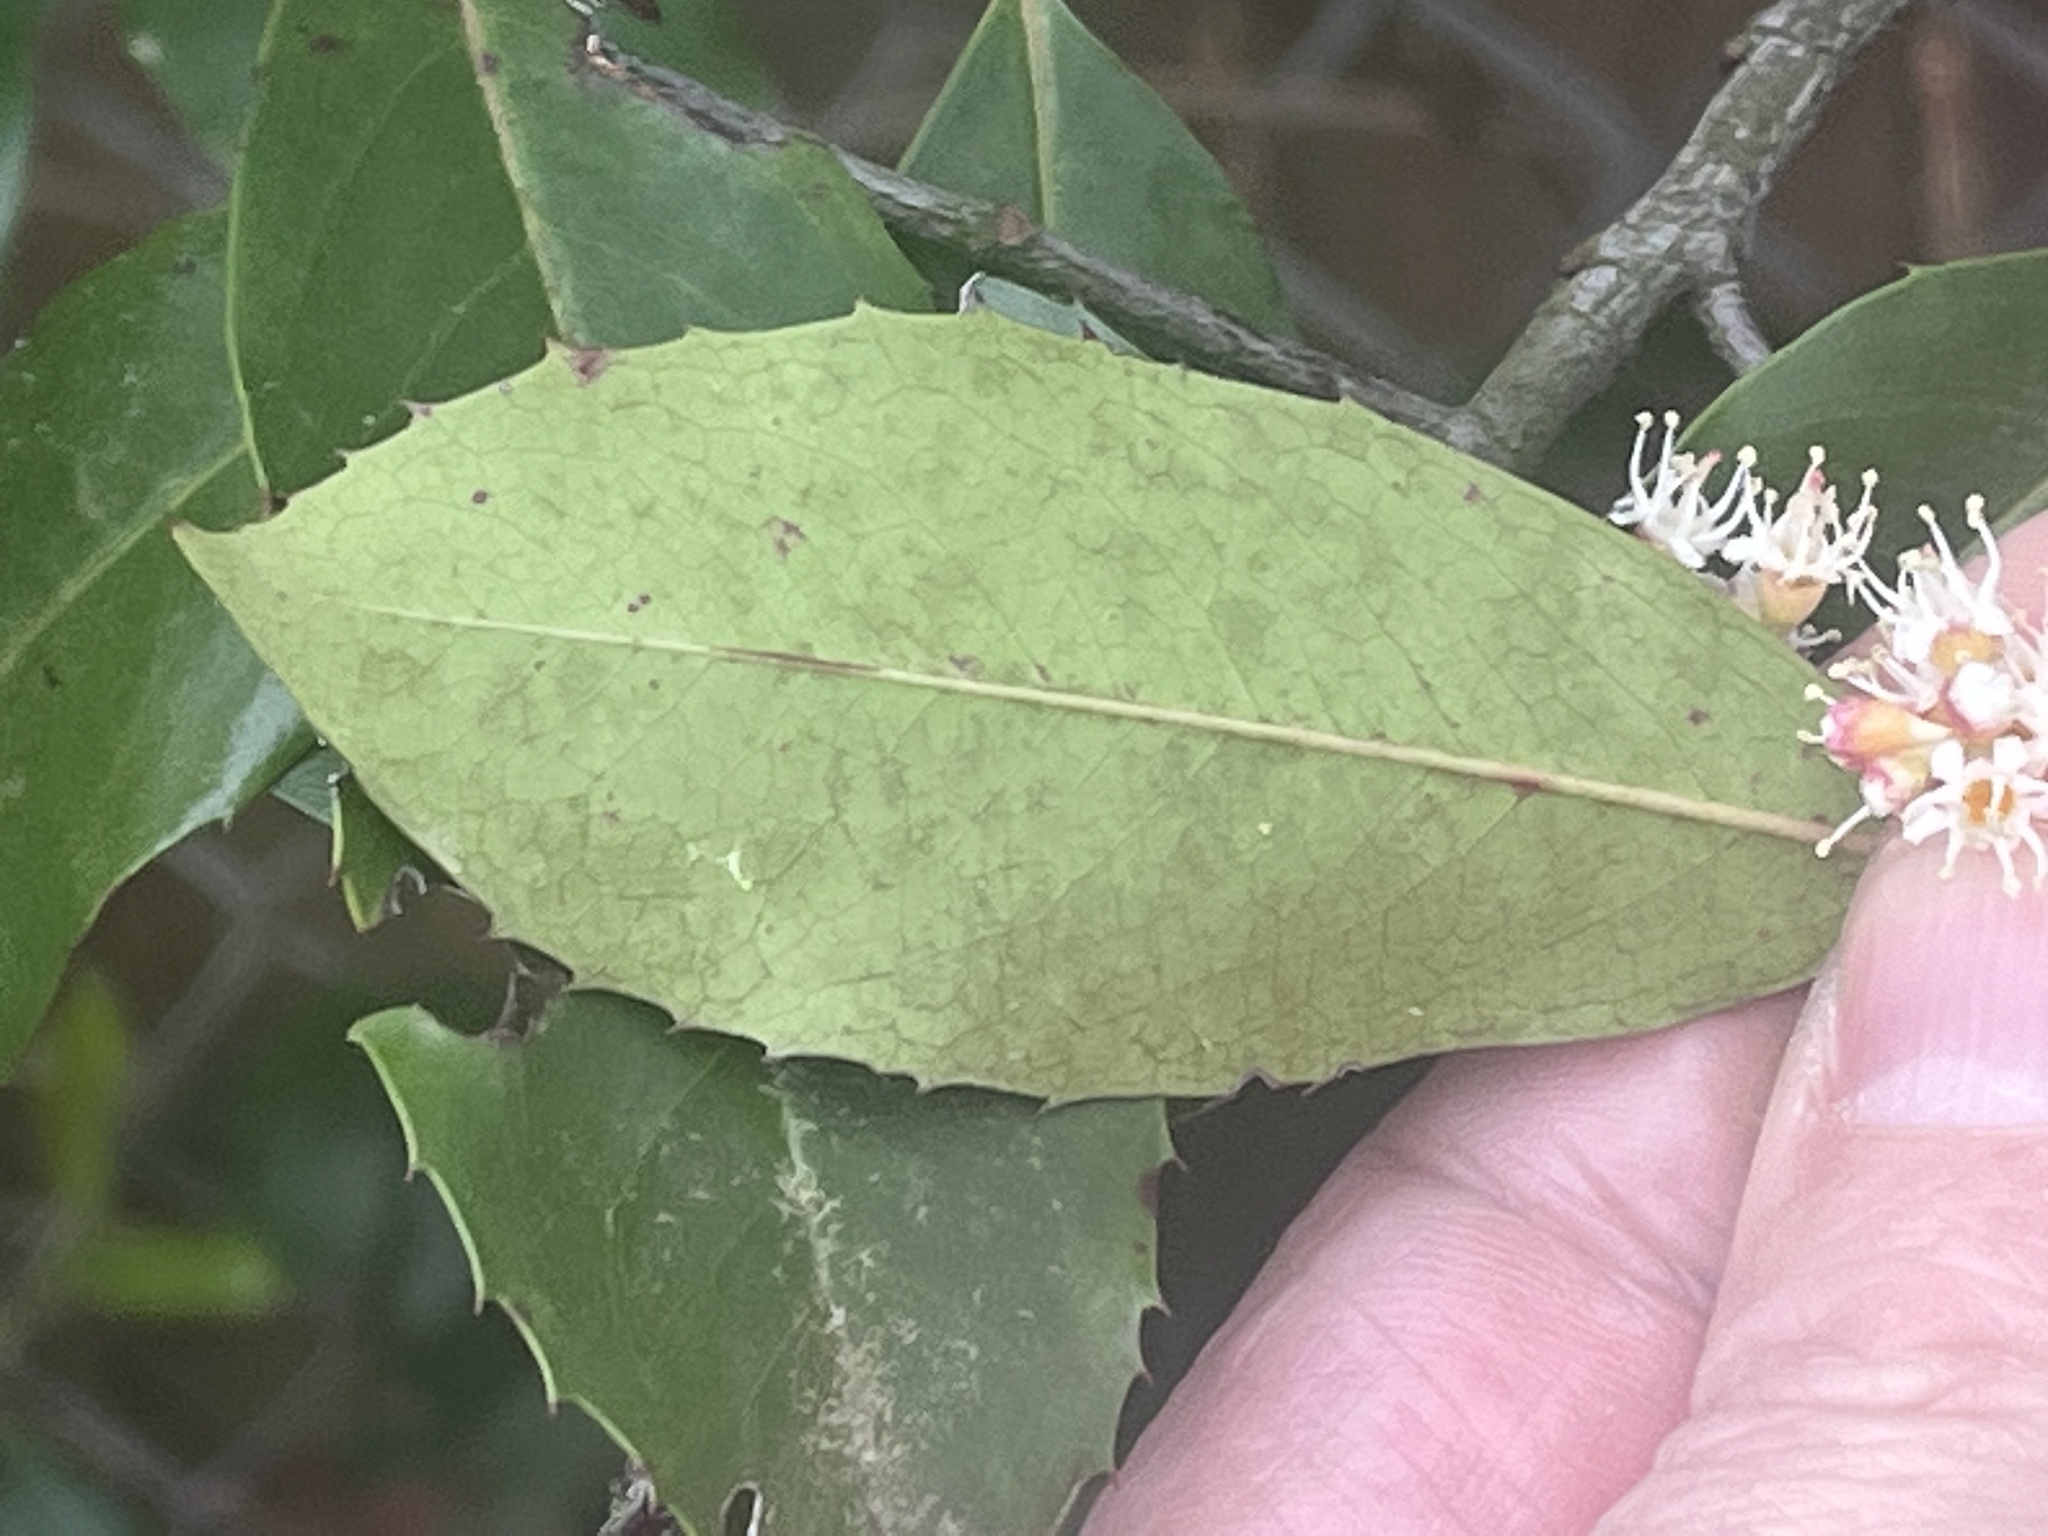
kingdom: Plantae
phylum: Tracheophyta
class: Magnoliopsida
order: Rosales
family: Rosaceae
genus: Prunus
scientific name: Prunus caroliniana
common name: Carolina laurel cherry
